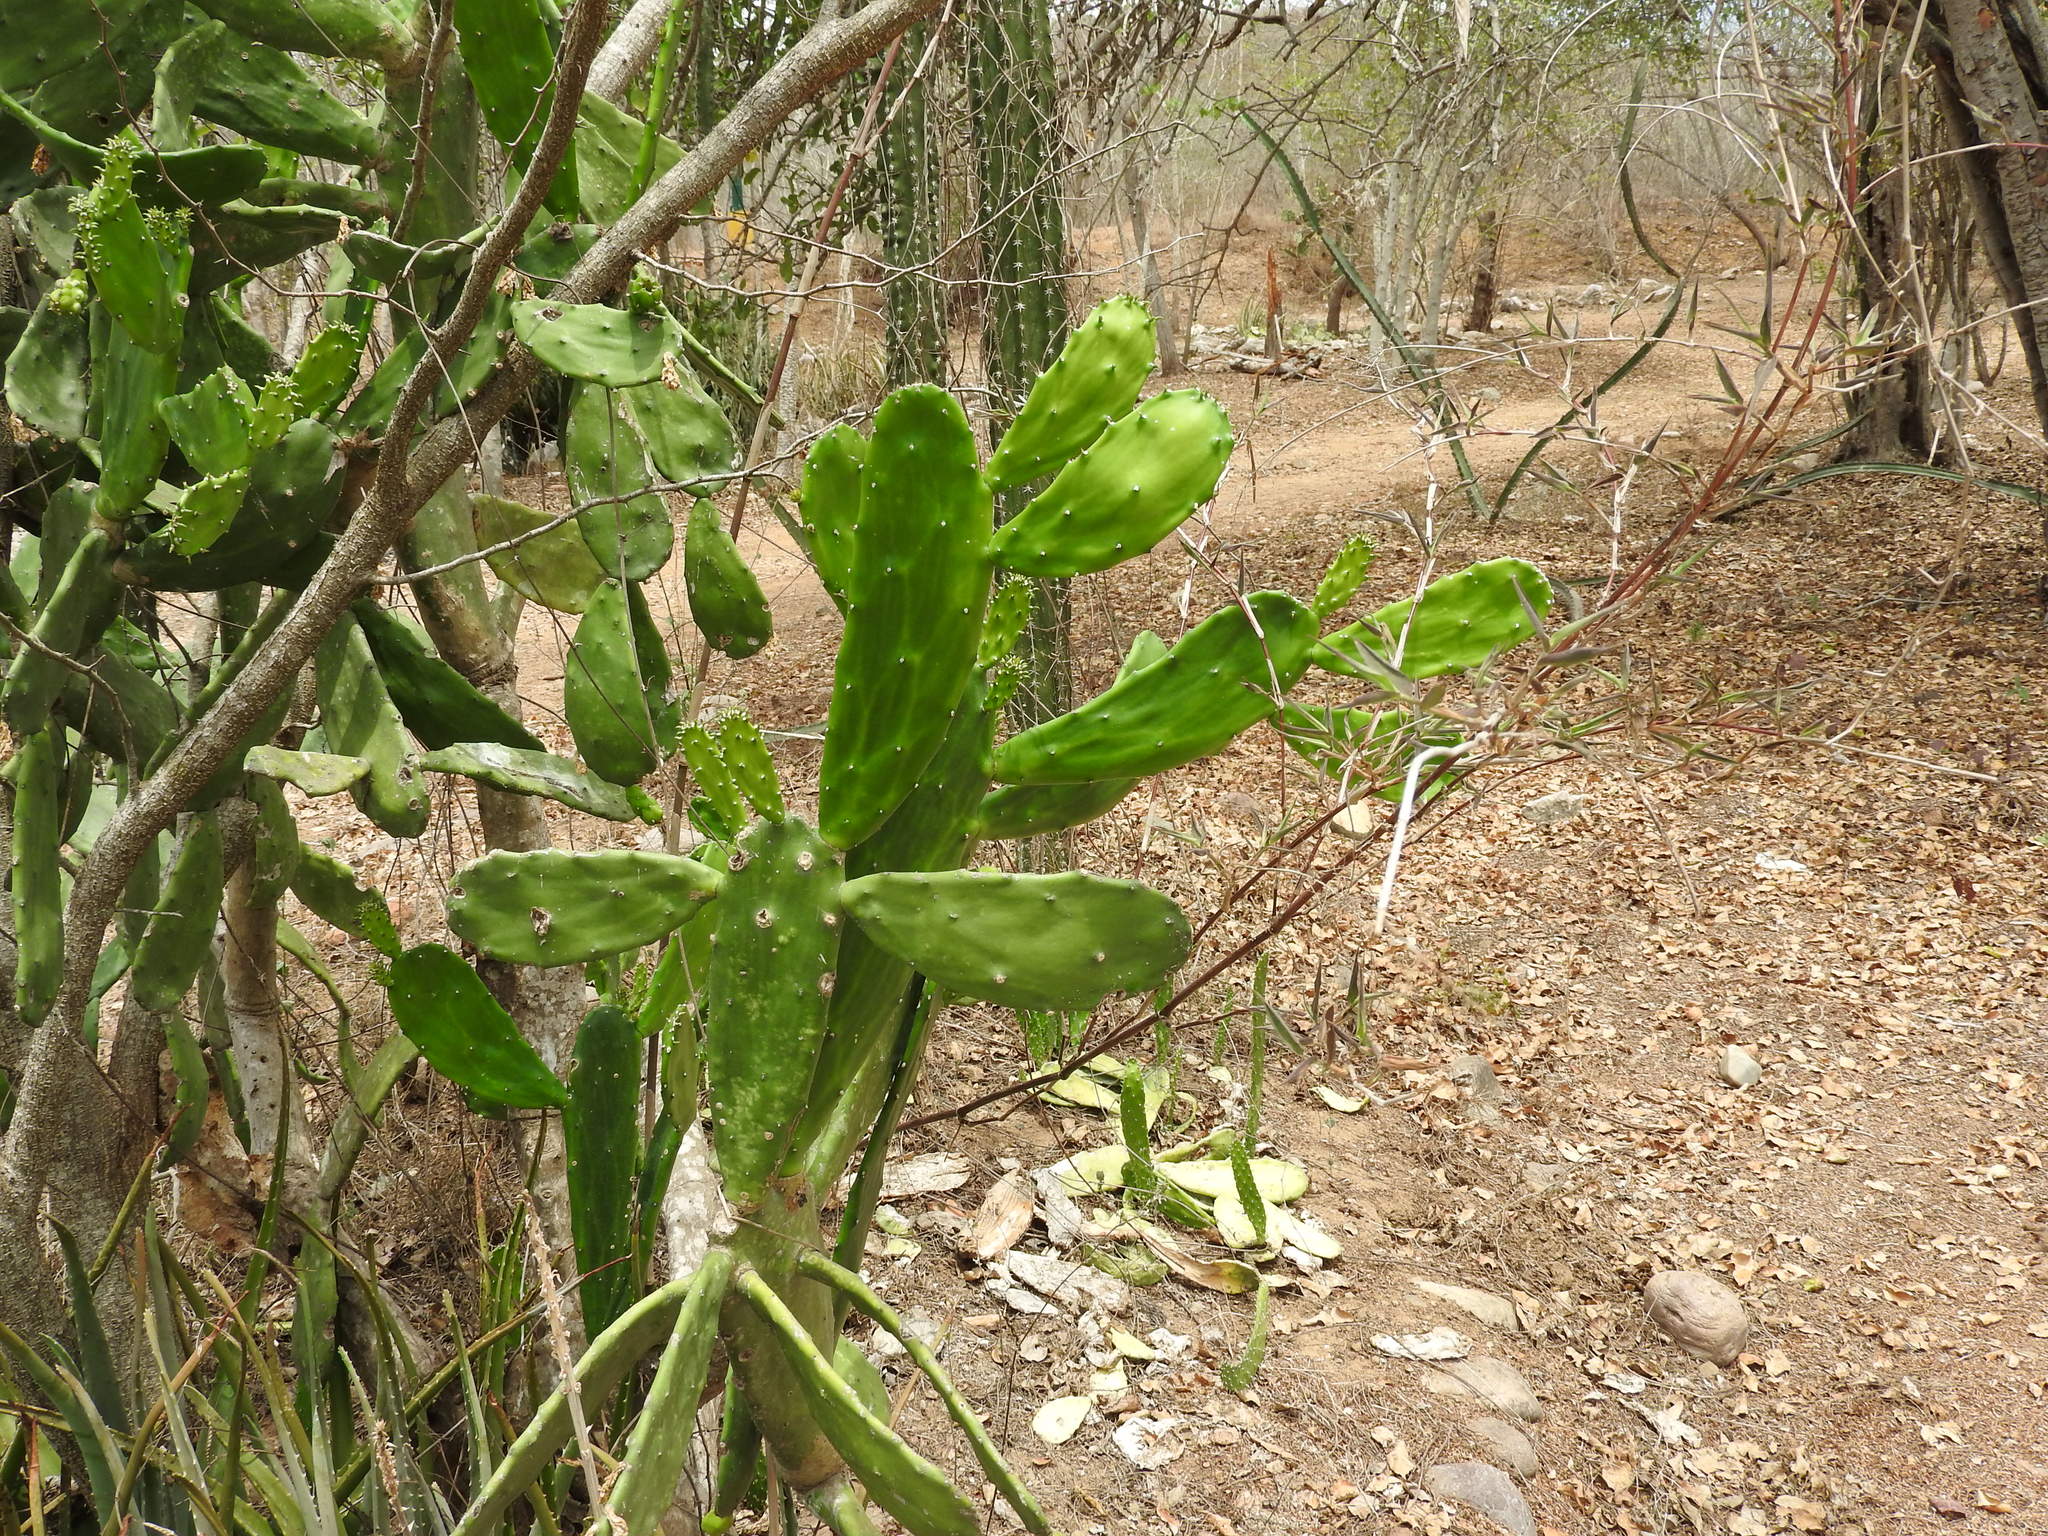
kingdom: Plantae
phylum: Tracheophyta
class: Magnoliopsida
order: Caryophyllales
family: Cactaceae
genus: Opuntia
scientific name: Opuntia hyptiacantha
